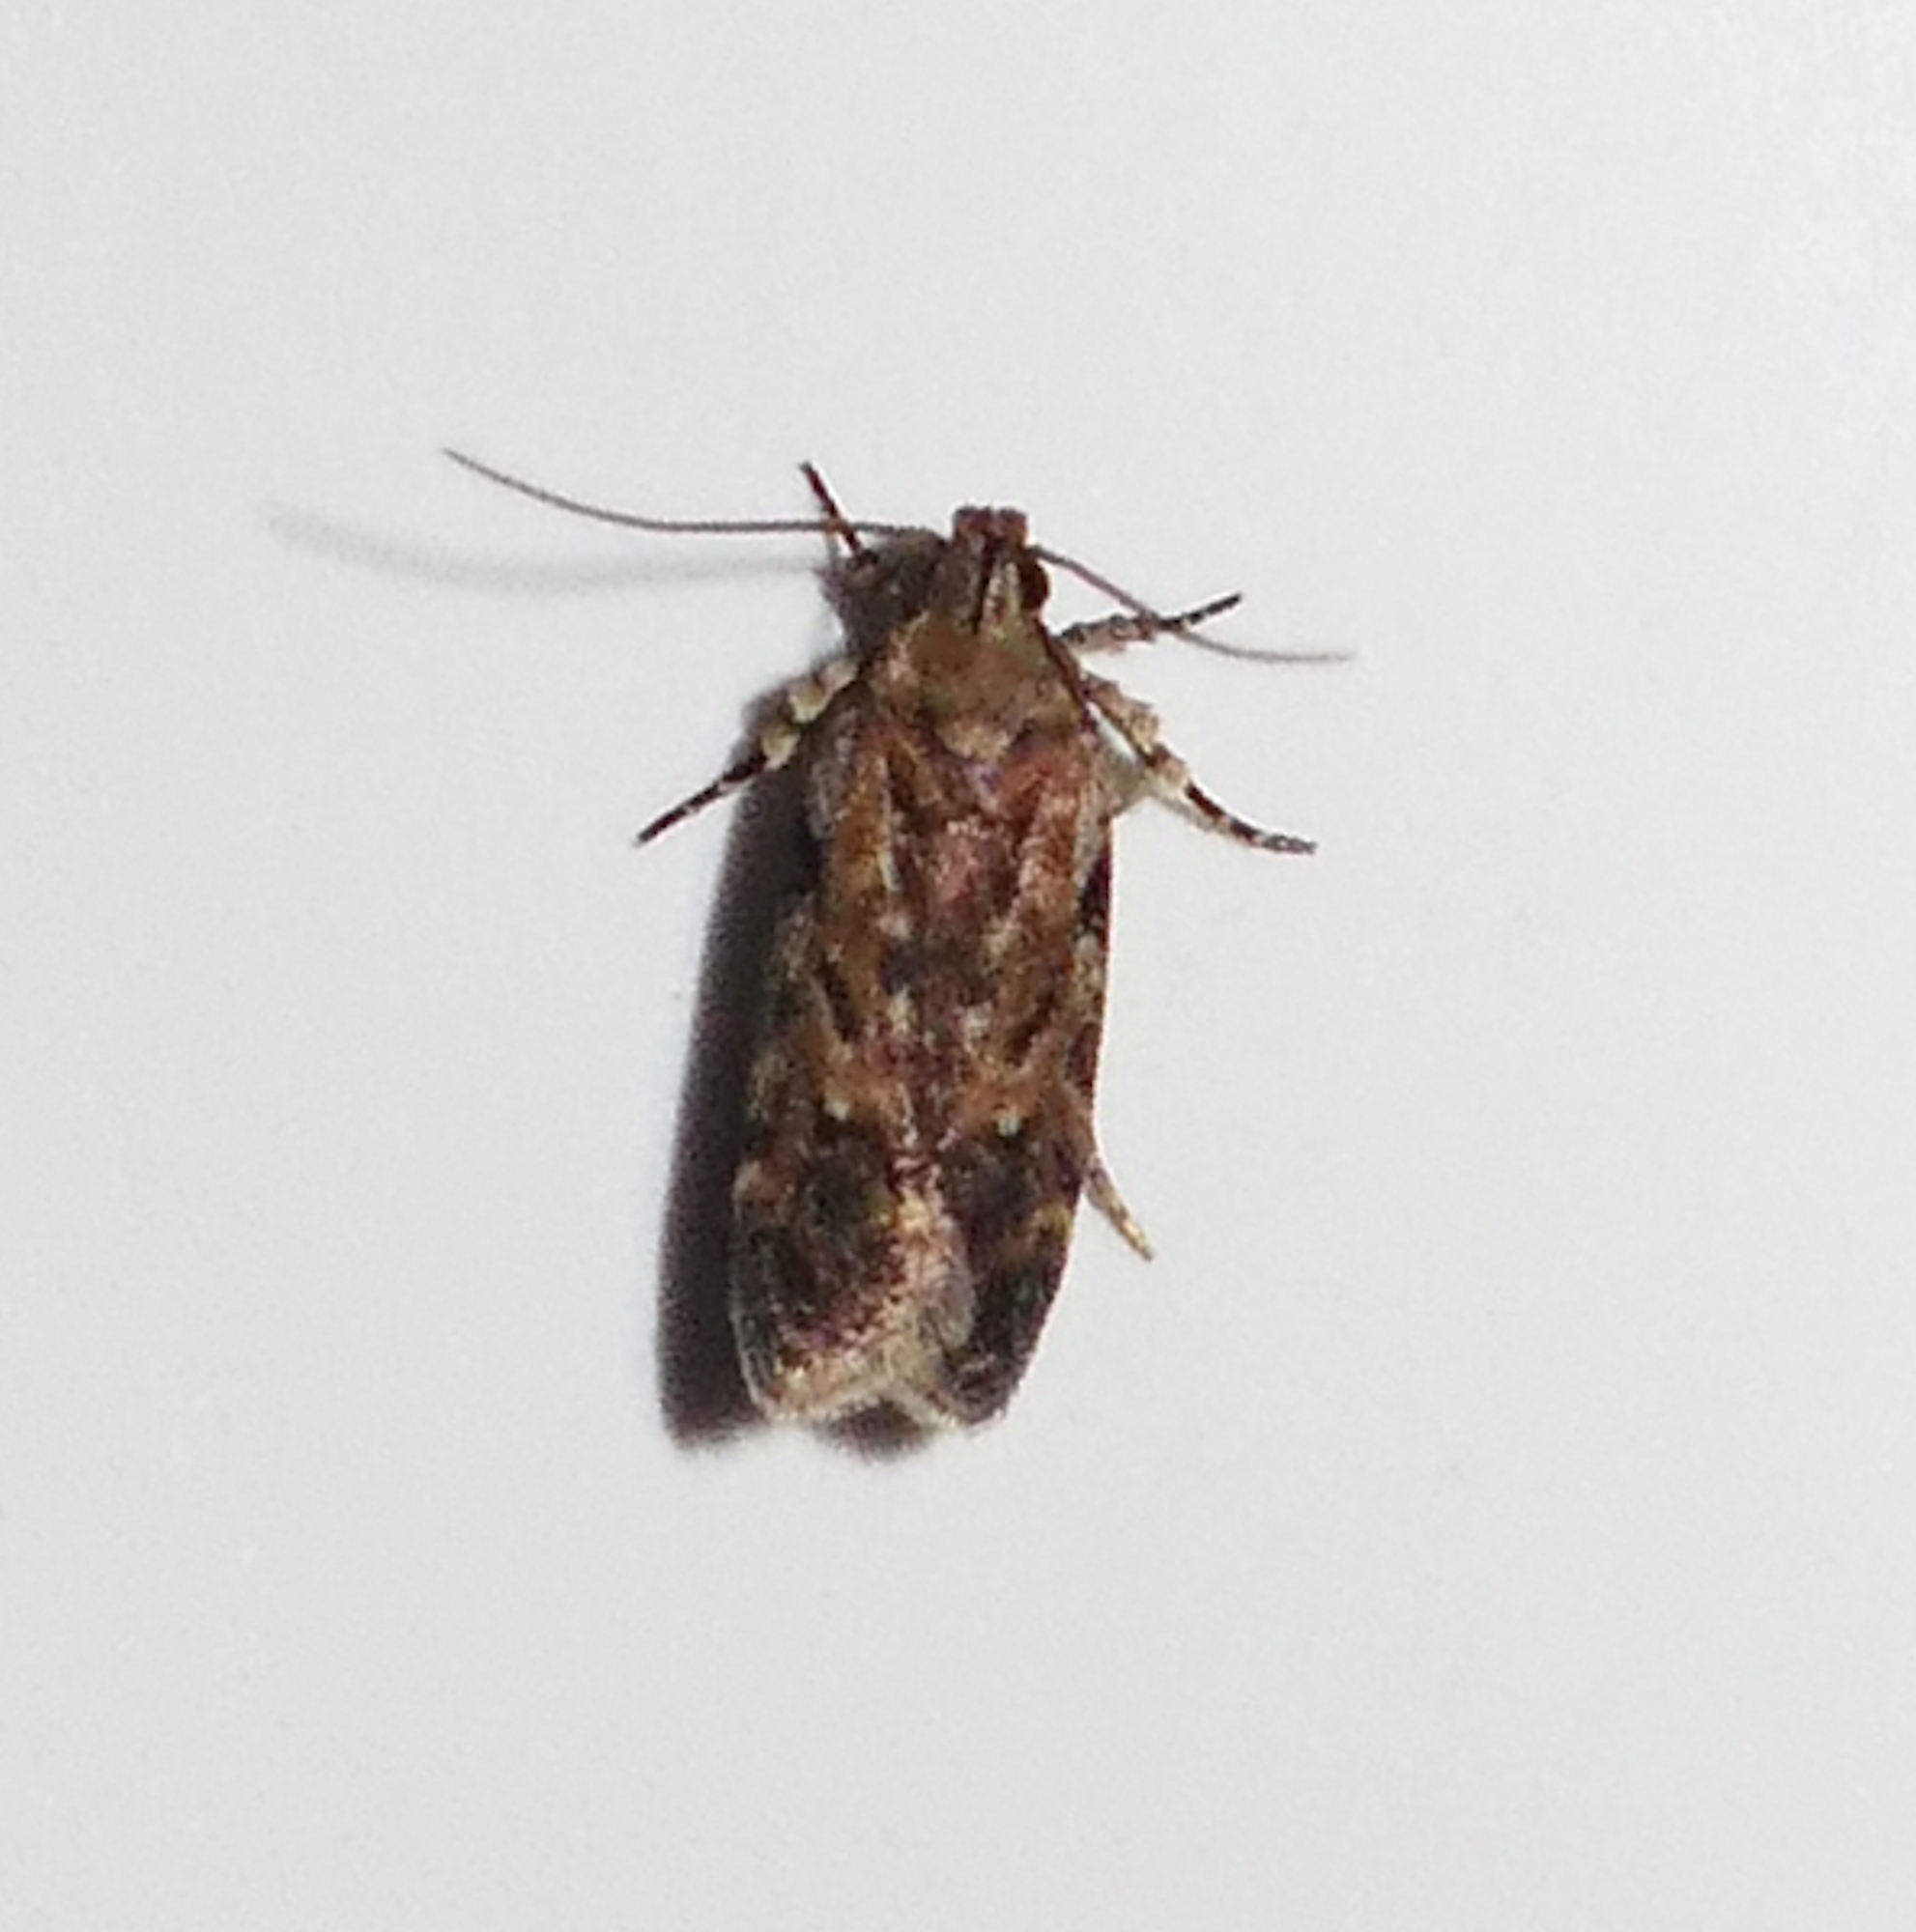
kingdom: Animalia
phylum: Arthropoda
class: Insecta
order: Lepidoptera
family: Gelechiidae
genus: Chionodes
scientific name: Chionodes pereyra
